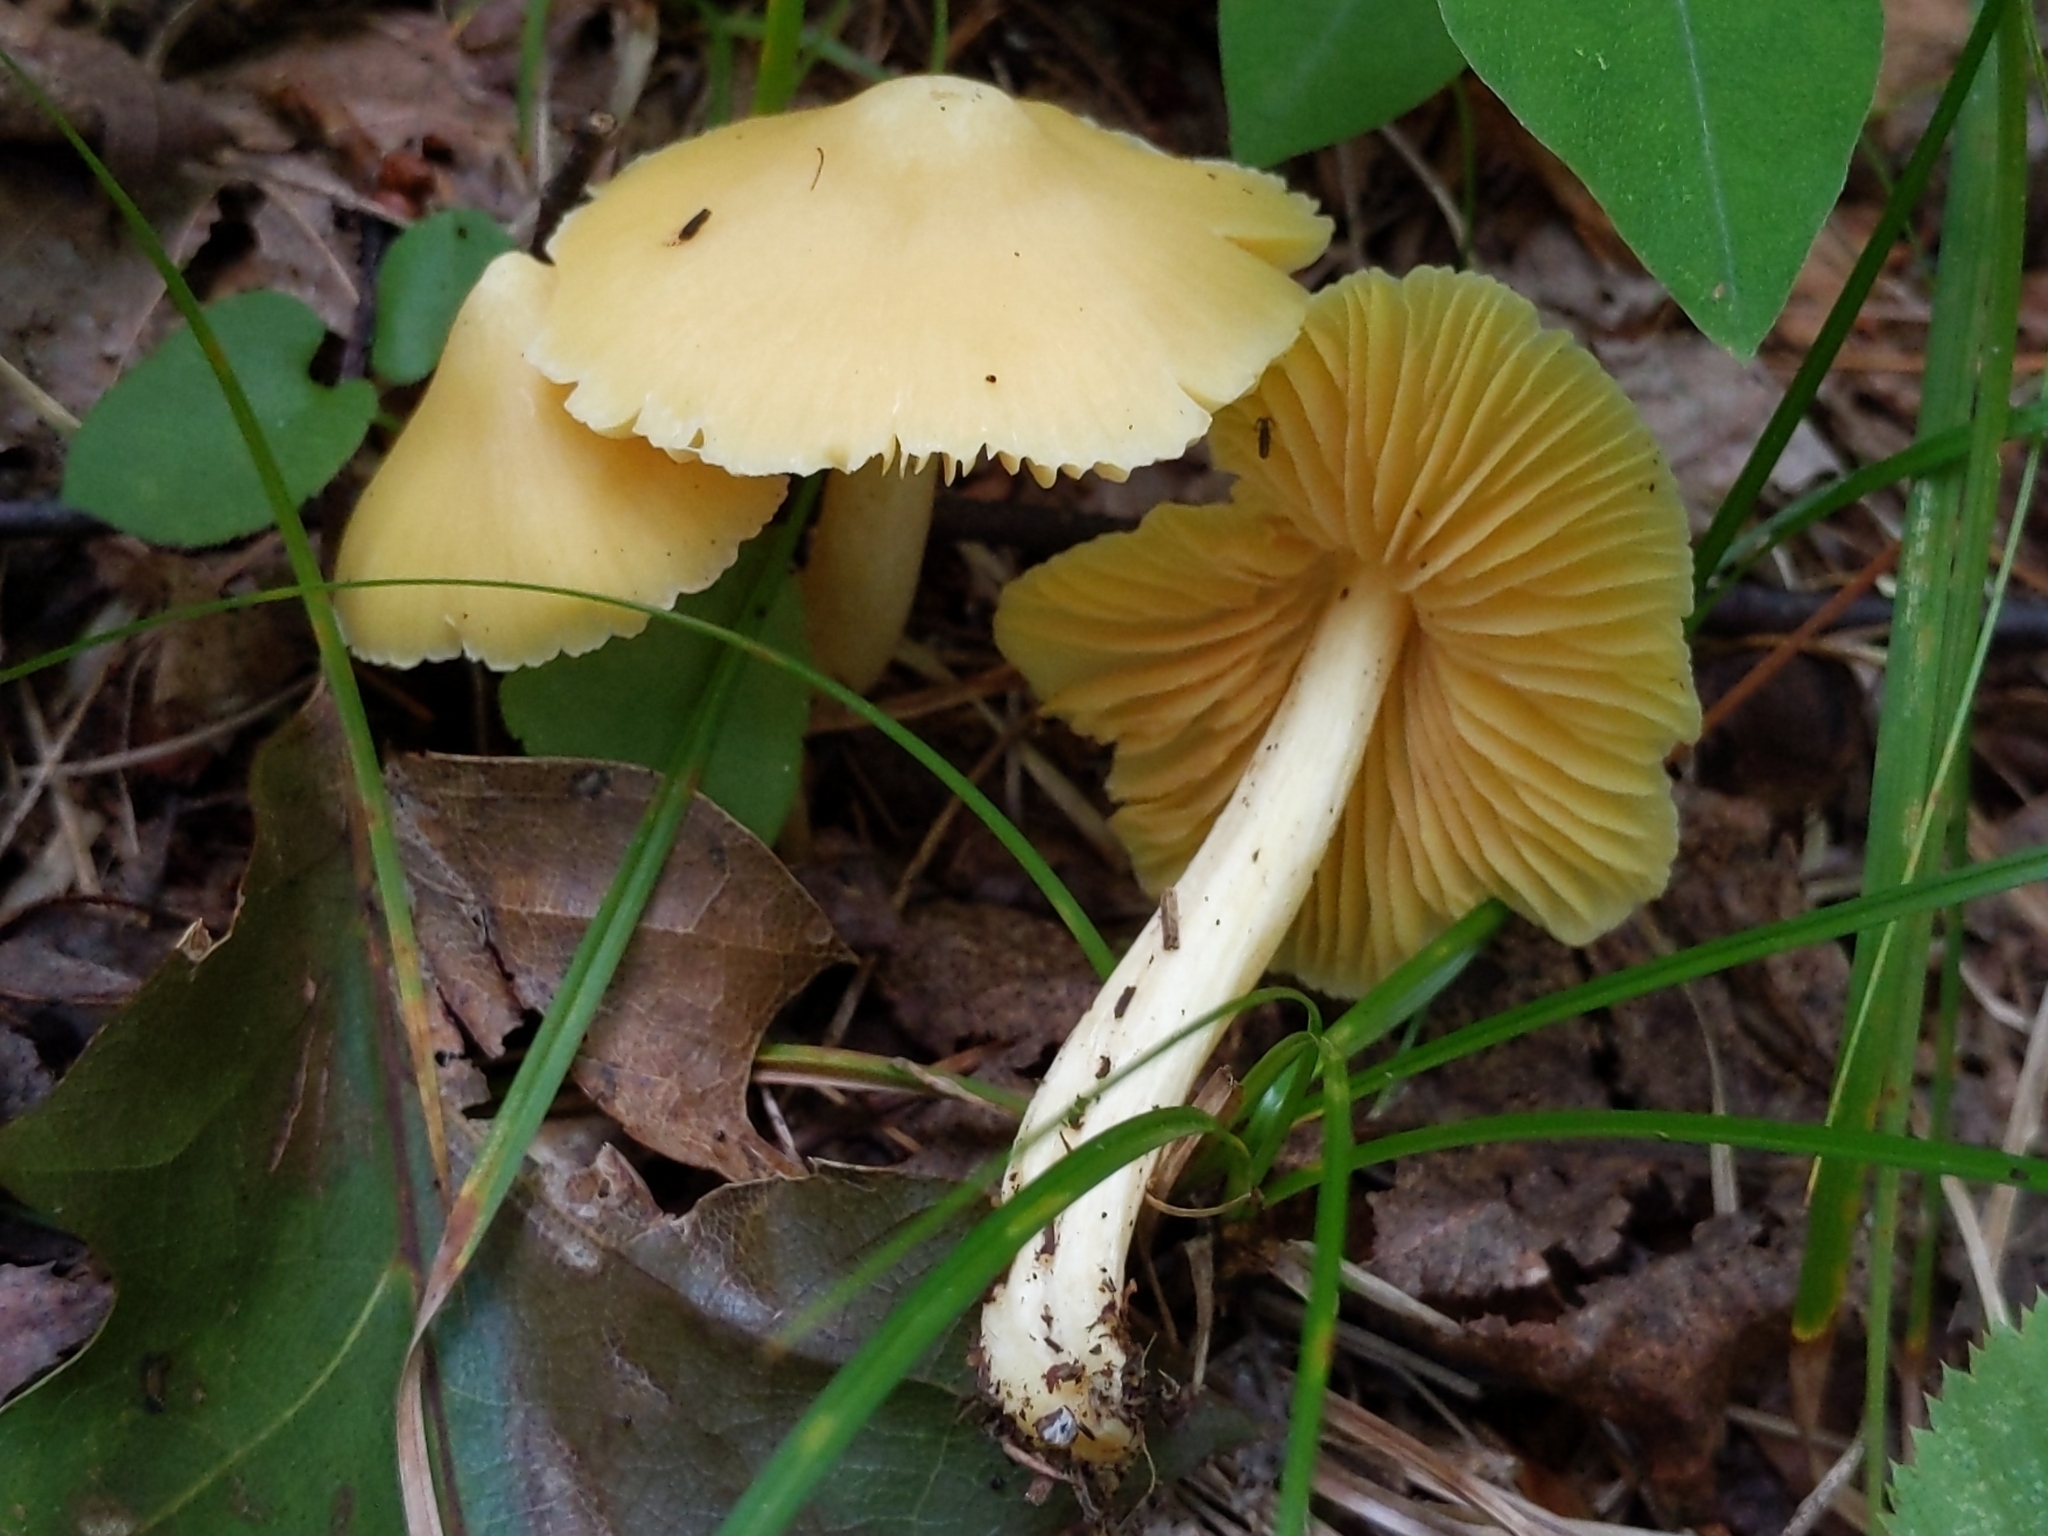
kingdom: Fungi
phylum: Basidiomycota
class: Agaricomycetes
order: Agaricales
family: Entolomataceae
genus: Entoloma
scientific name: Entoloma murrayi
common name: Yellow unicorn entoloma
